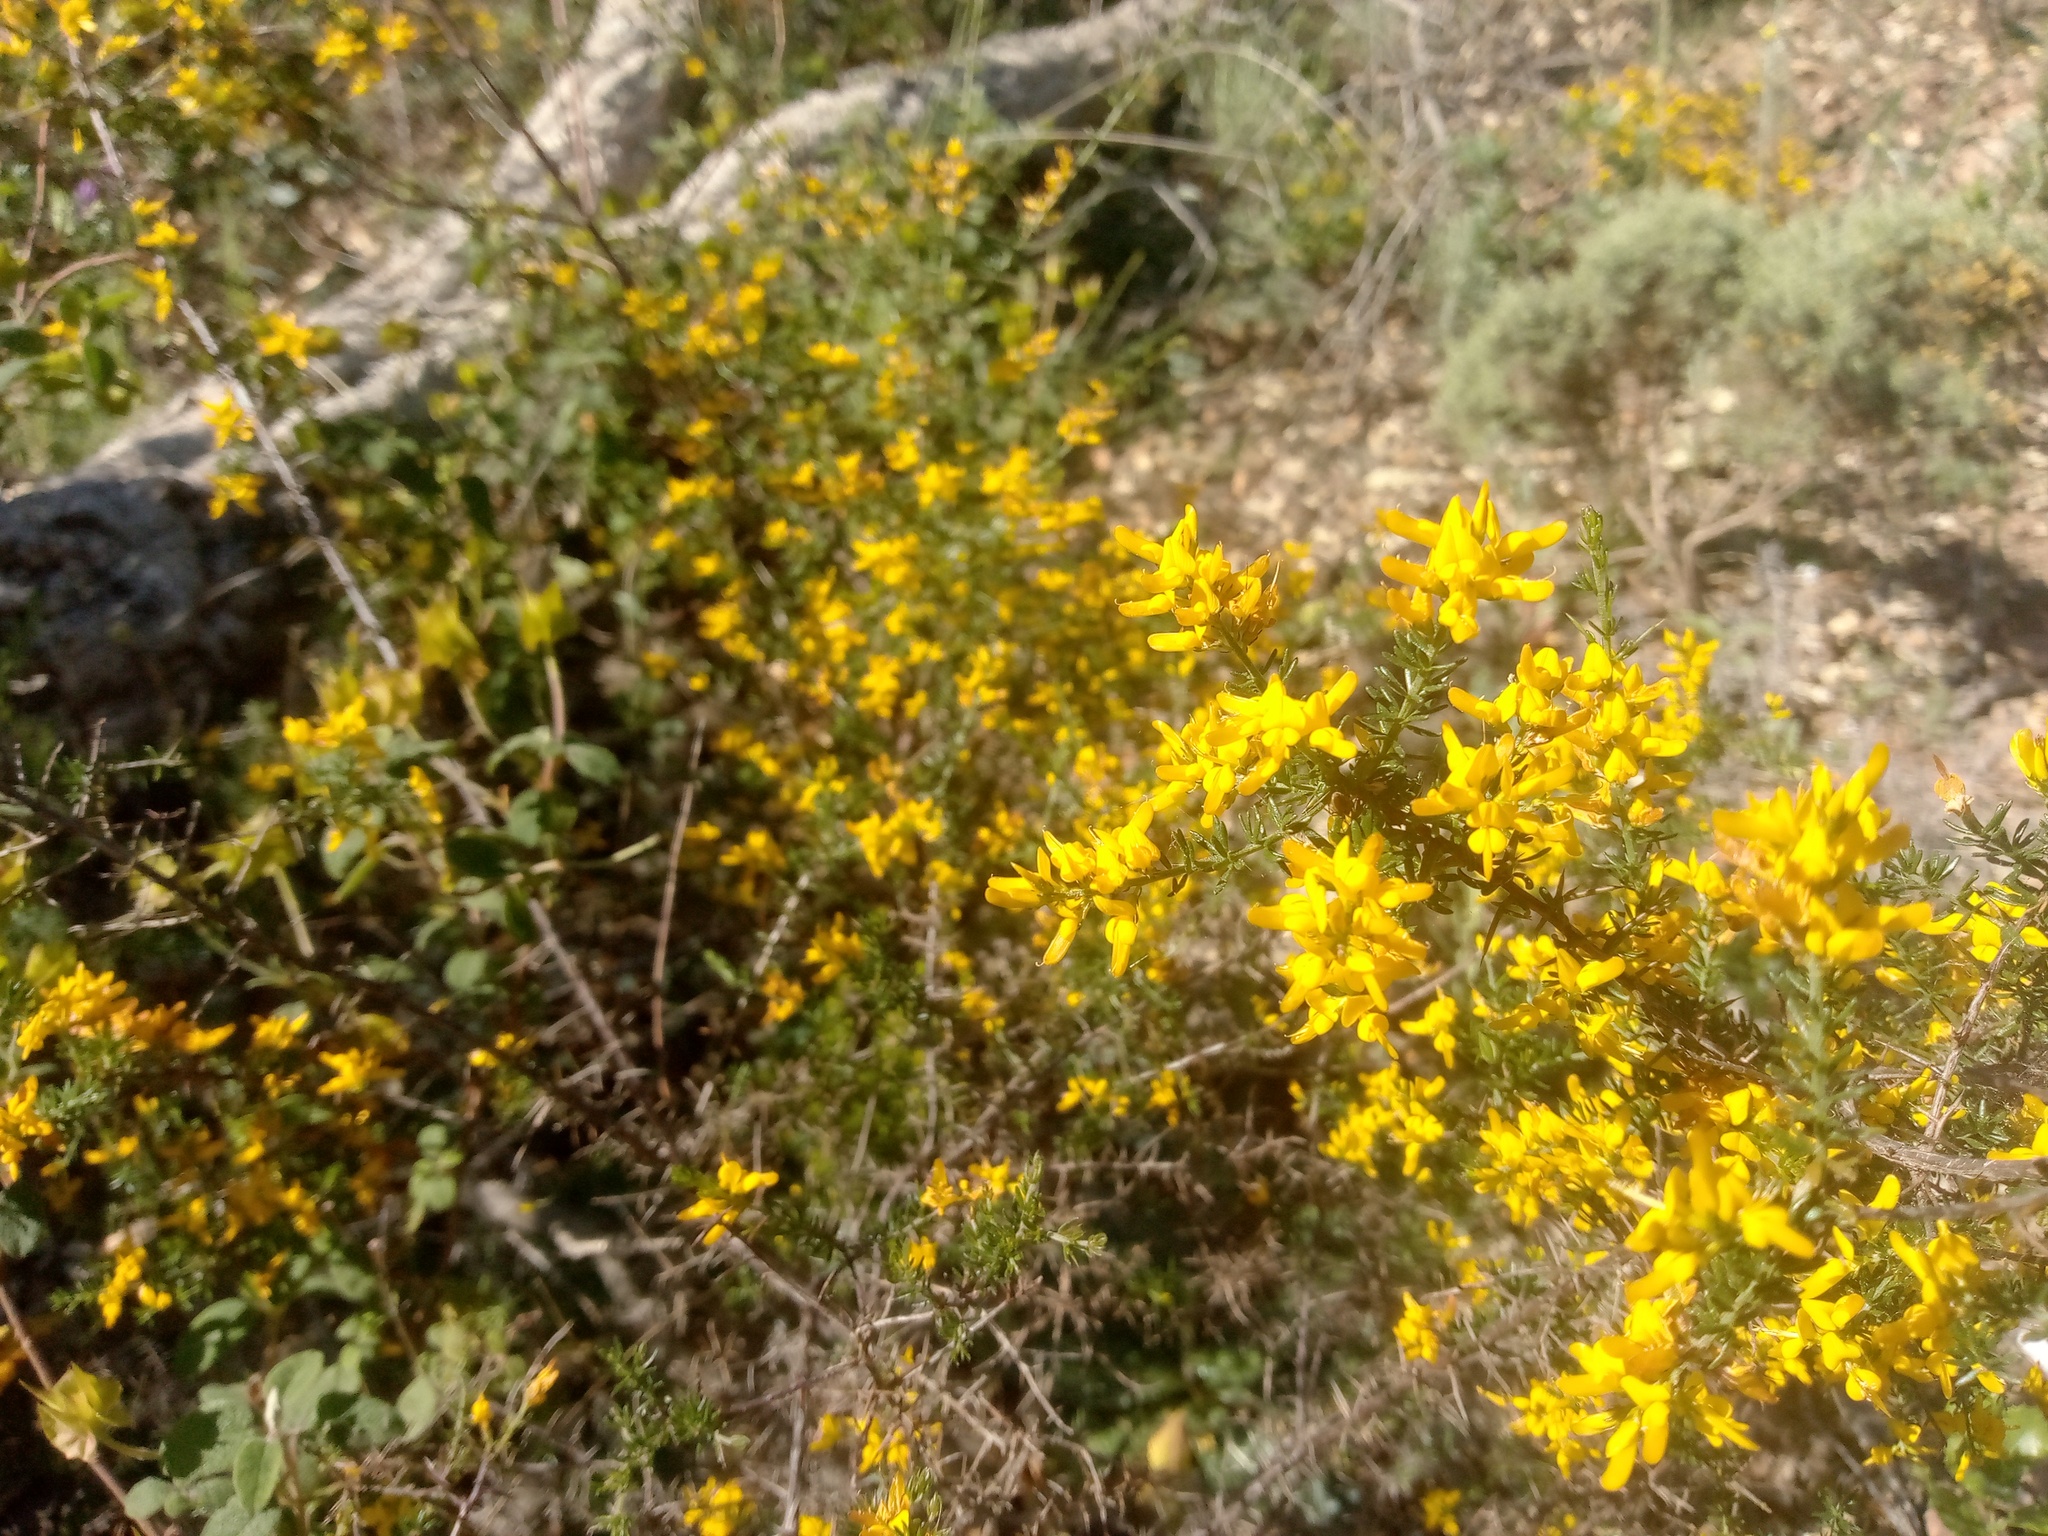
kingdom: Plantae
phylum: Tracheophyta
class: Magnoliopsida
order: Fabales
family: Fabaceae
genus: Genista
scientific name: Genista triacanthos
